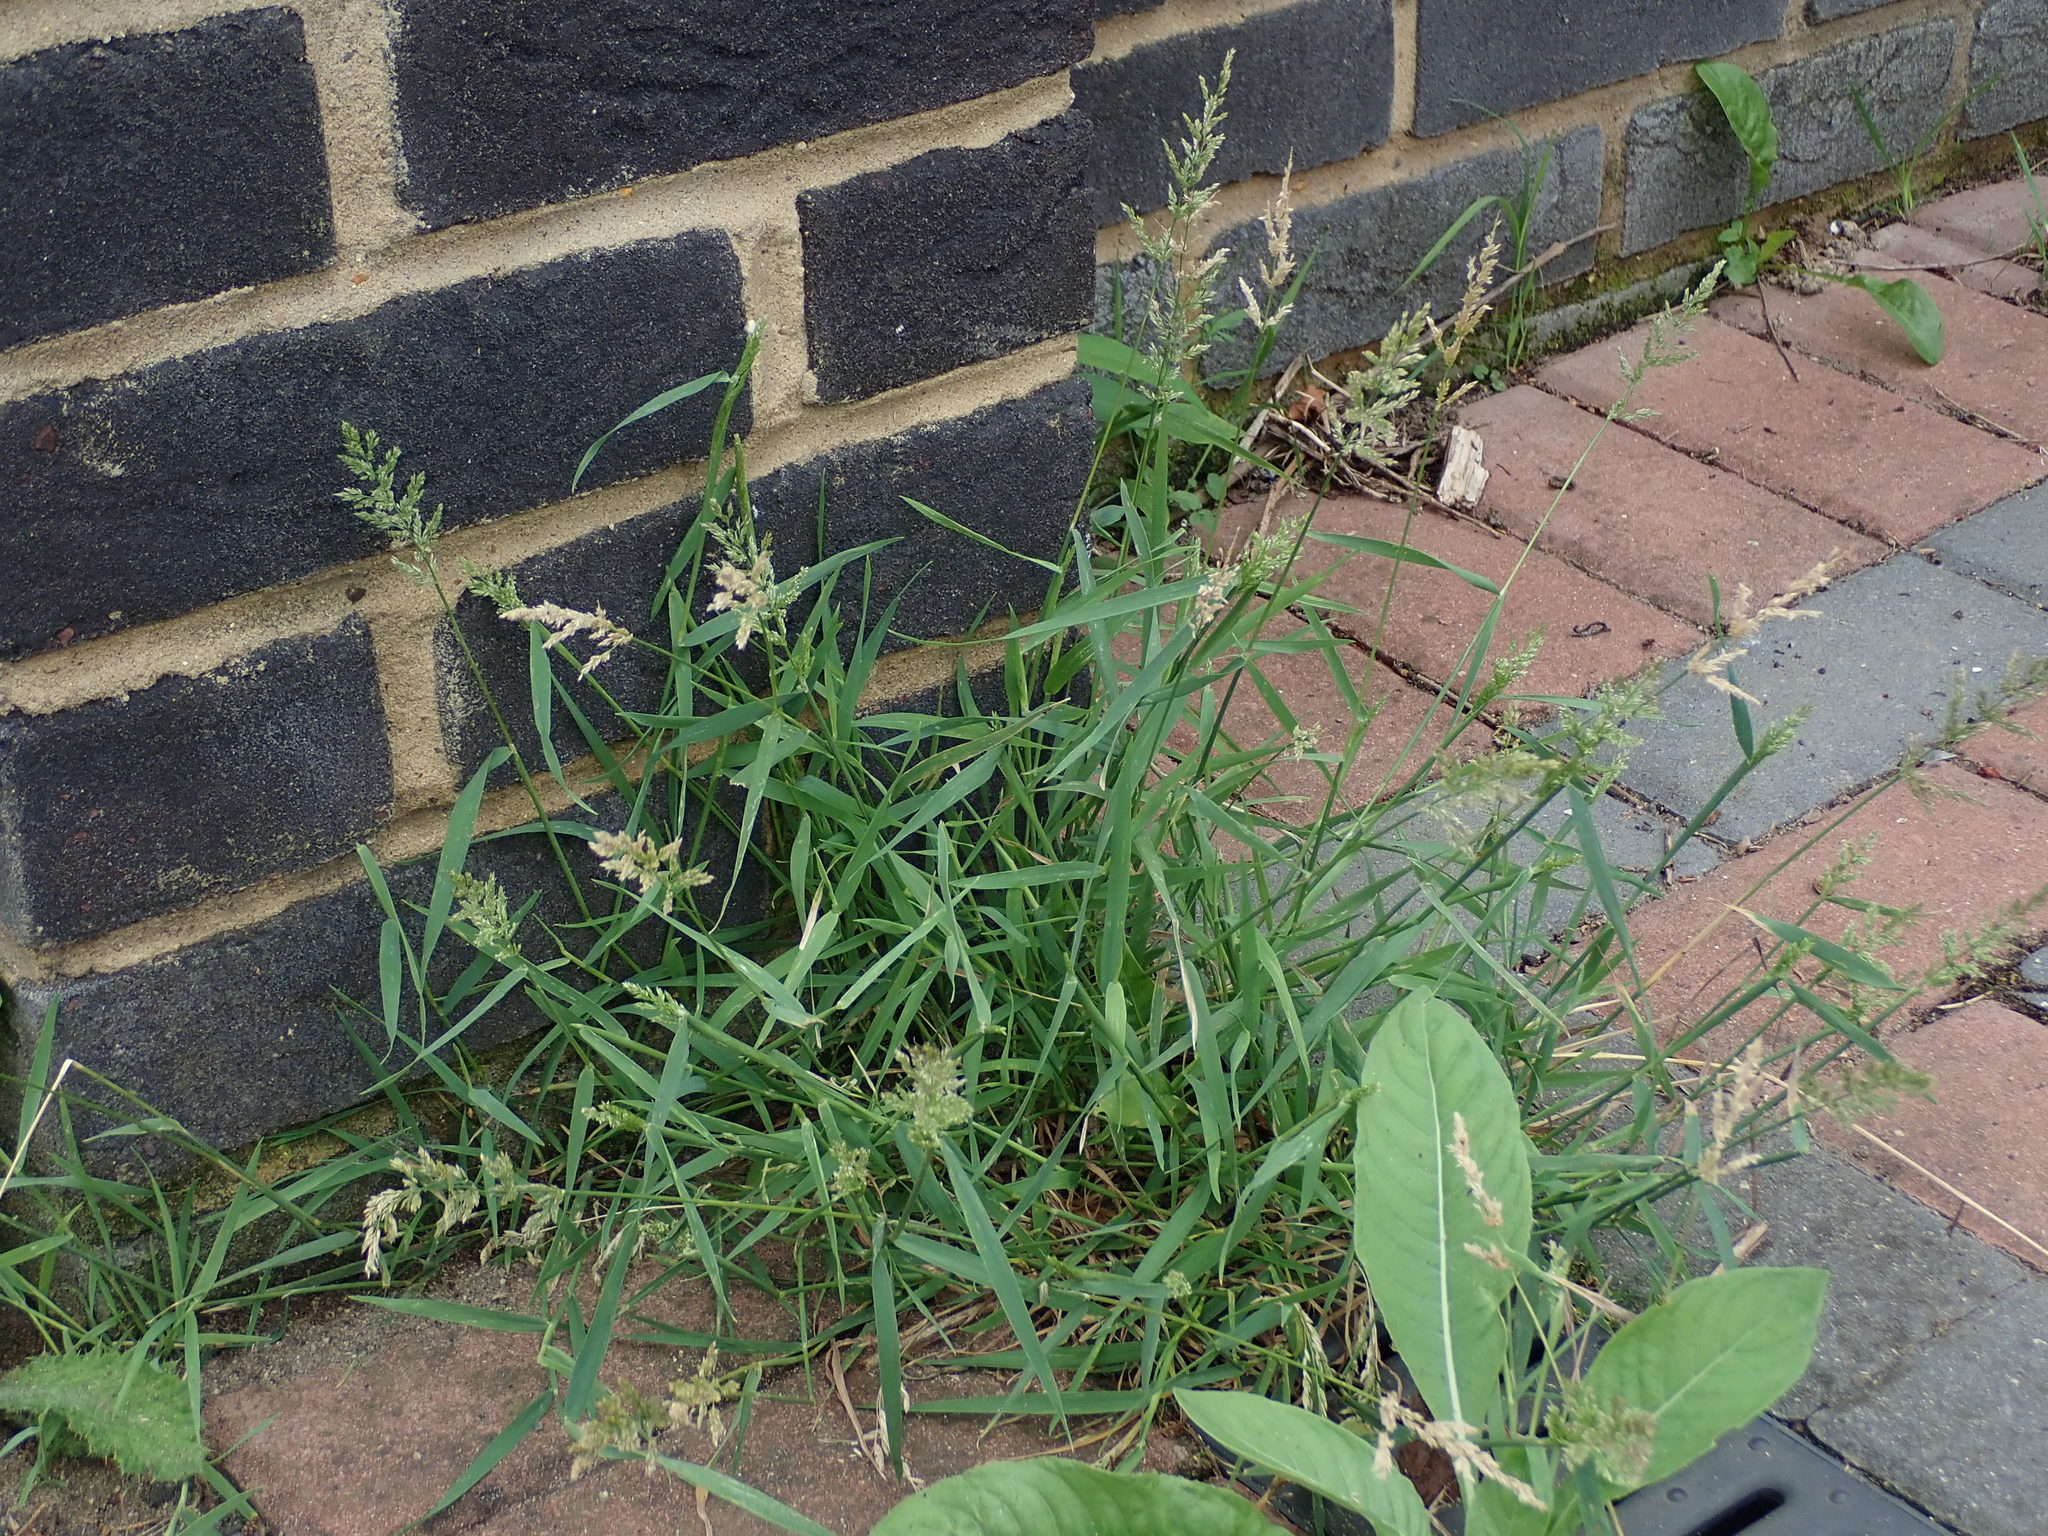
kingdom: Plantae
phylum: Tracheophyta
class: Liliopsida
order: Poales
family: Poaceae
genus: Polypogon
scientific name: Polypogon viridis
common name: Water bent
